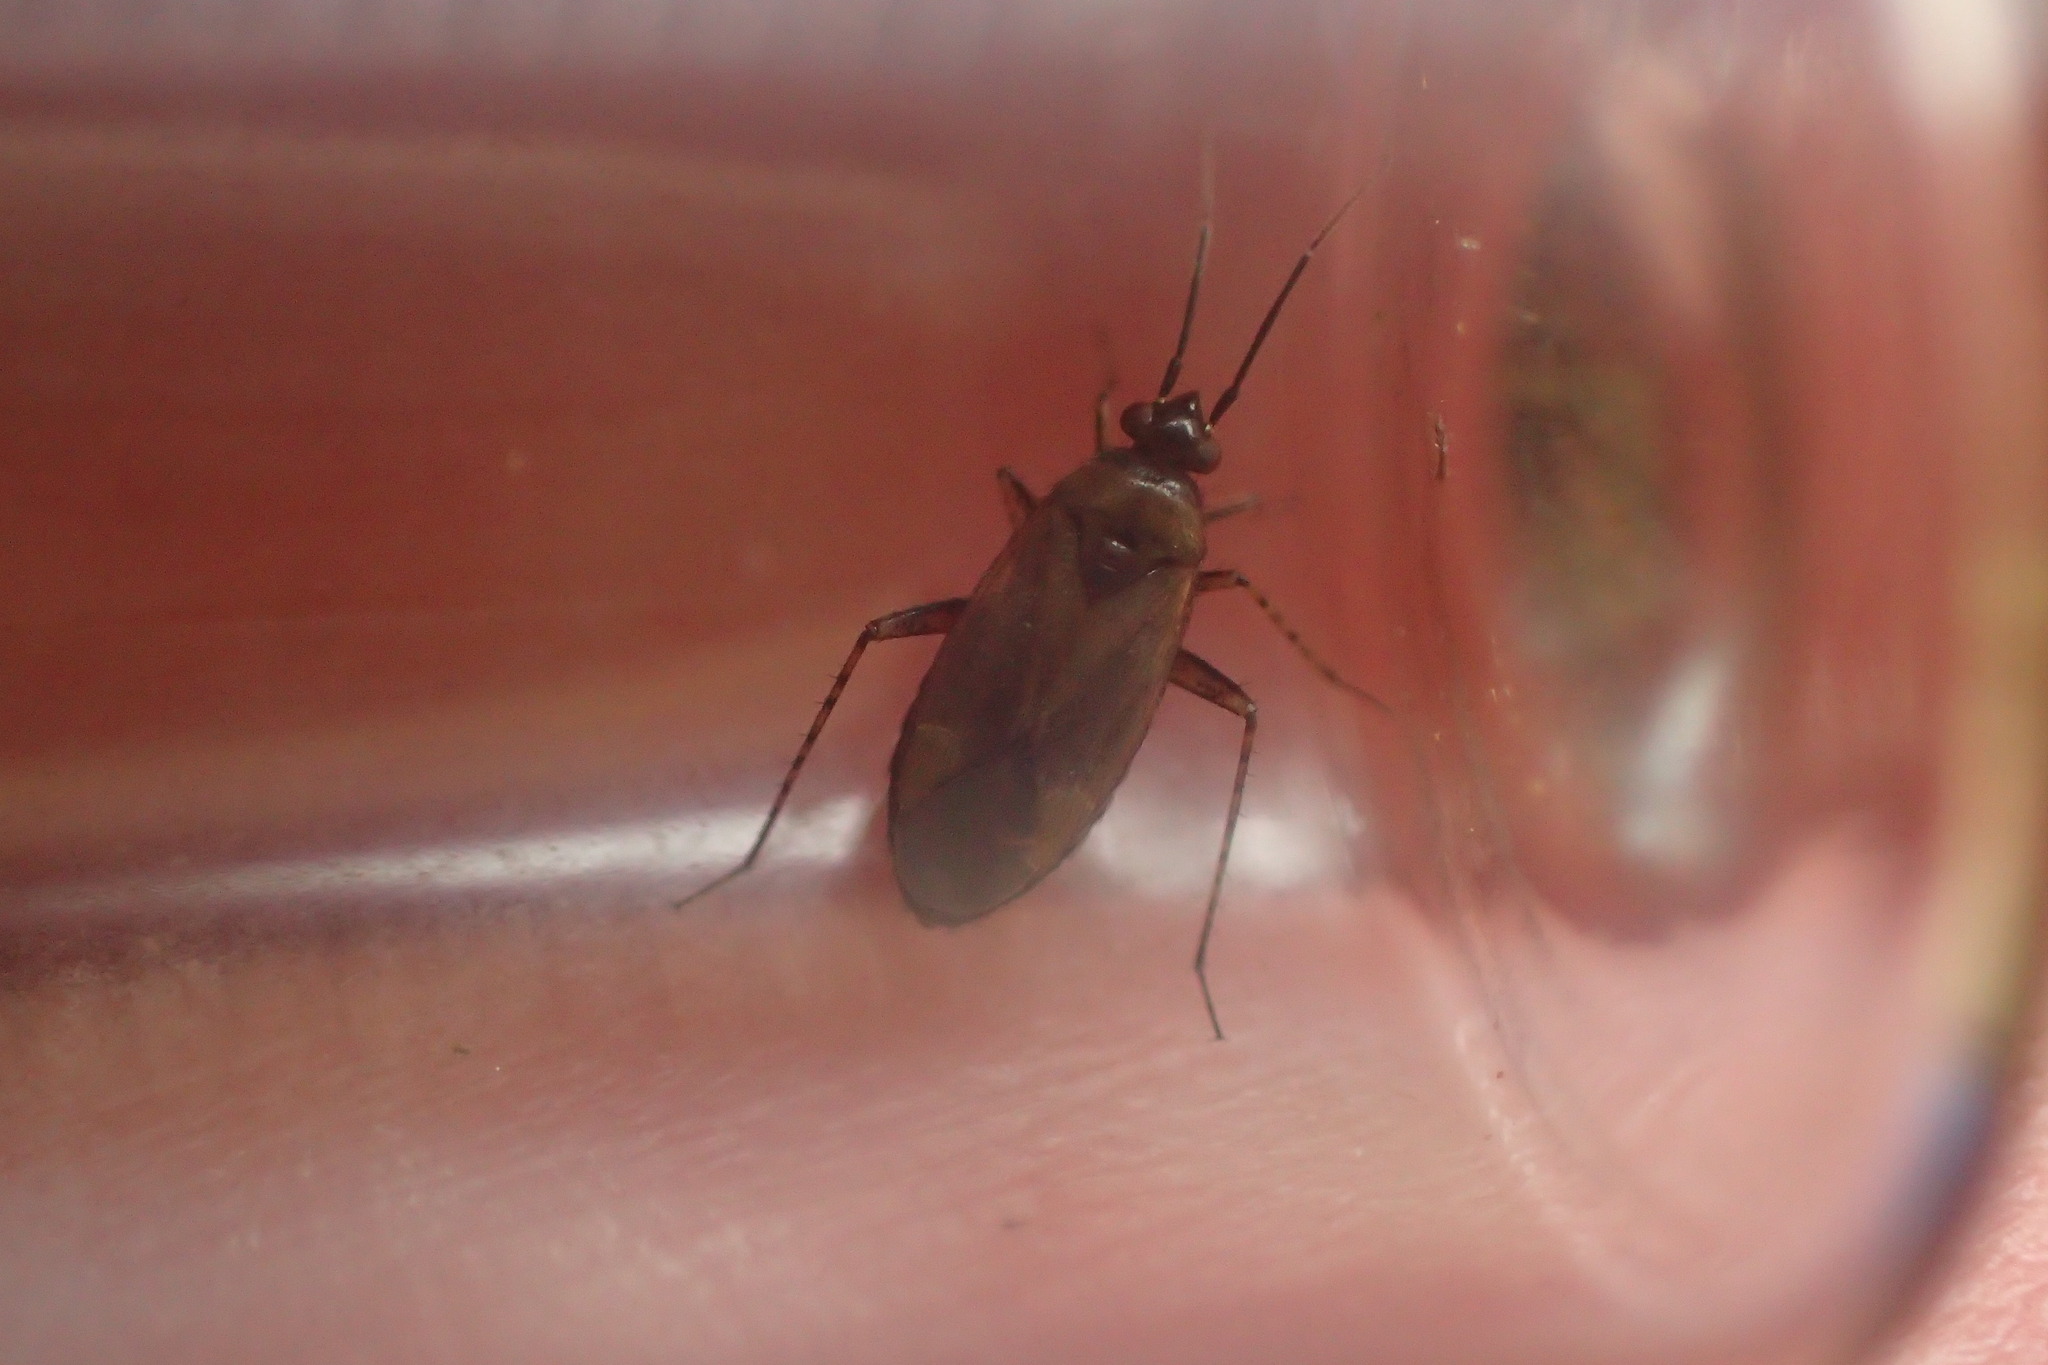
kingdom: Animalia
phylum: Arthropoda
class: Insecta
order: Hemiptera
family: Miridae
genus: Plagiognathus
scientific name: Plagiognathus arbustorum
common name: Plant bug
